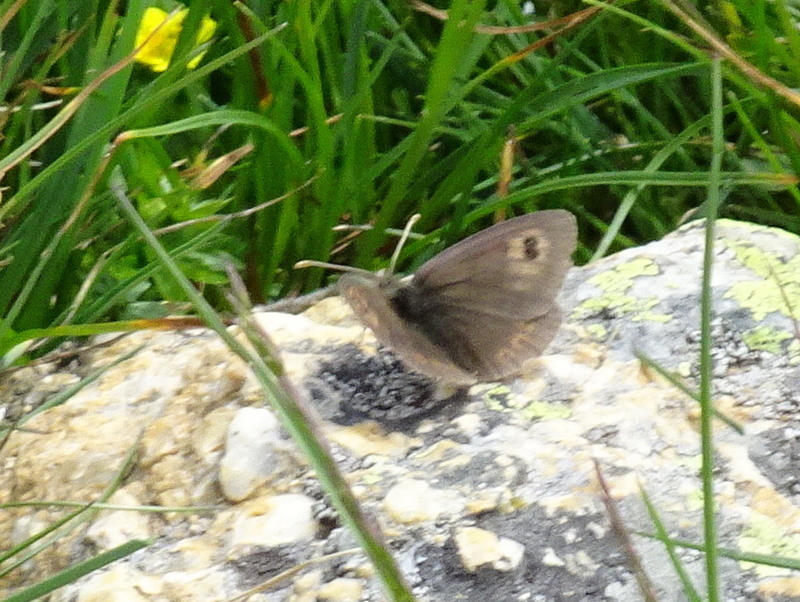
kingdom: Animalia
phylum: Arthropoda
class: Insecta
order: Lepidoptera
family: Nymphalidae
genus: Erebia
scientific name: Erebia cassioides
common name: Common brassy ringlet
